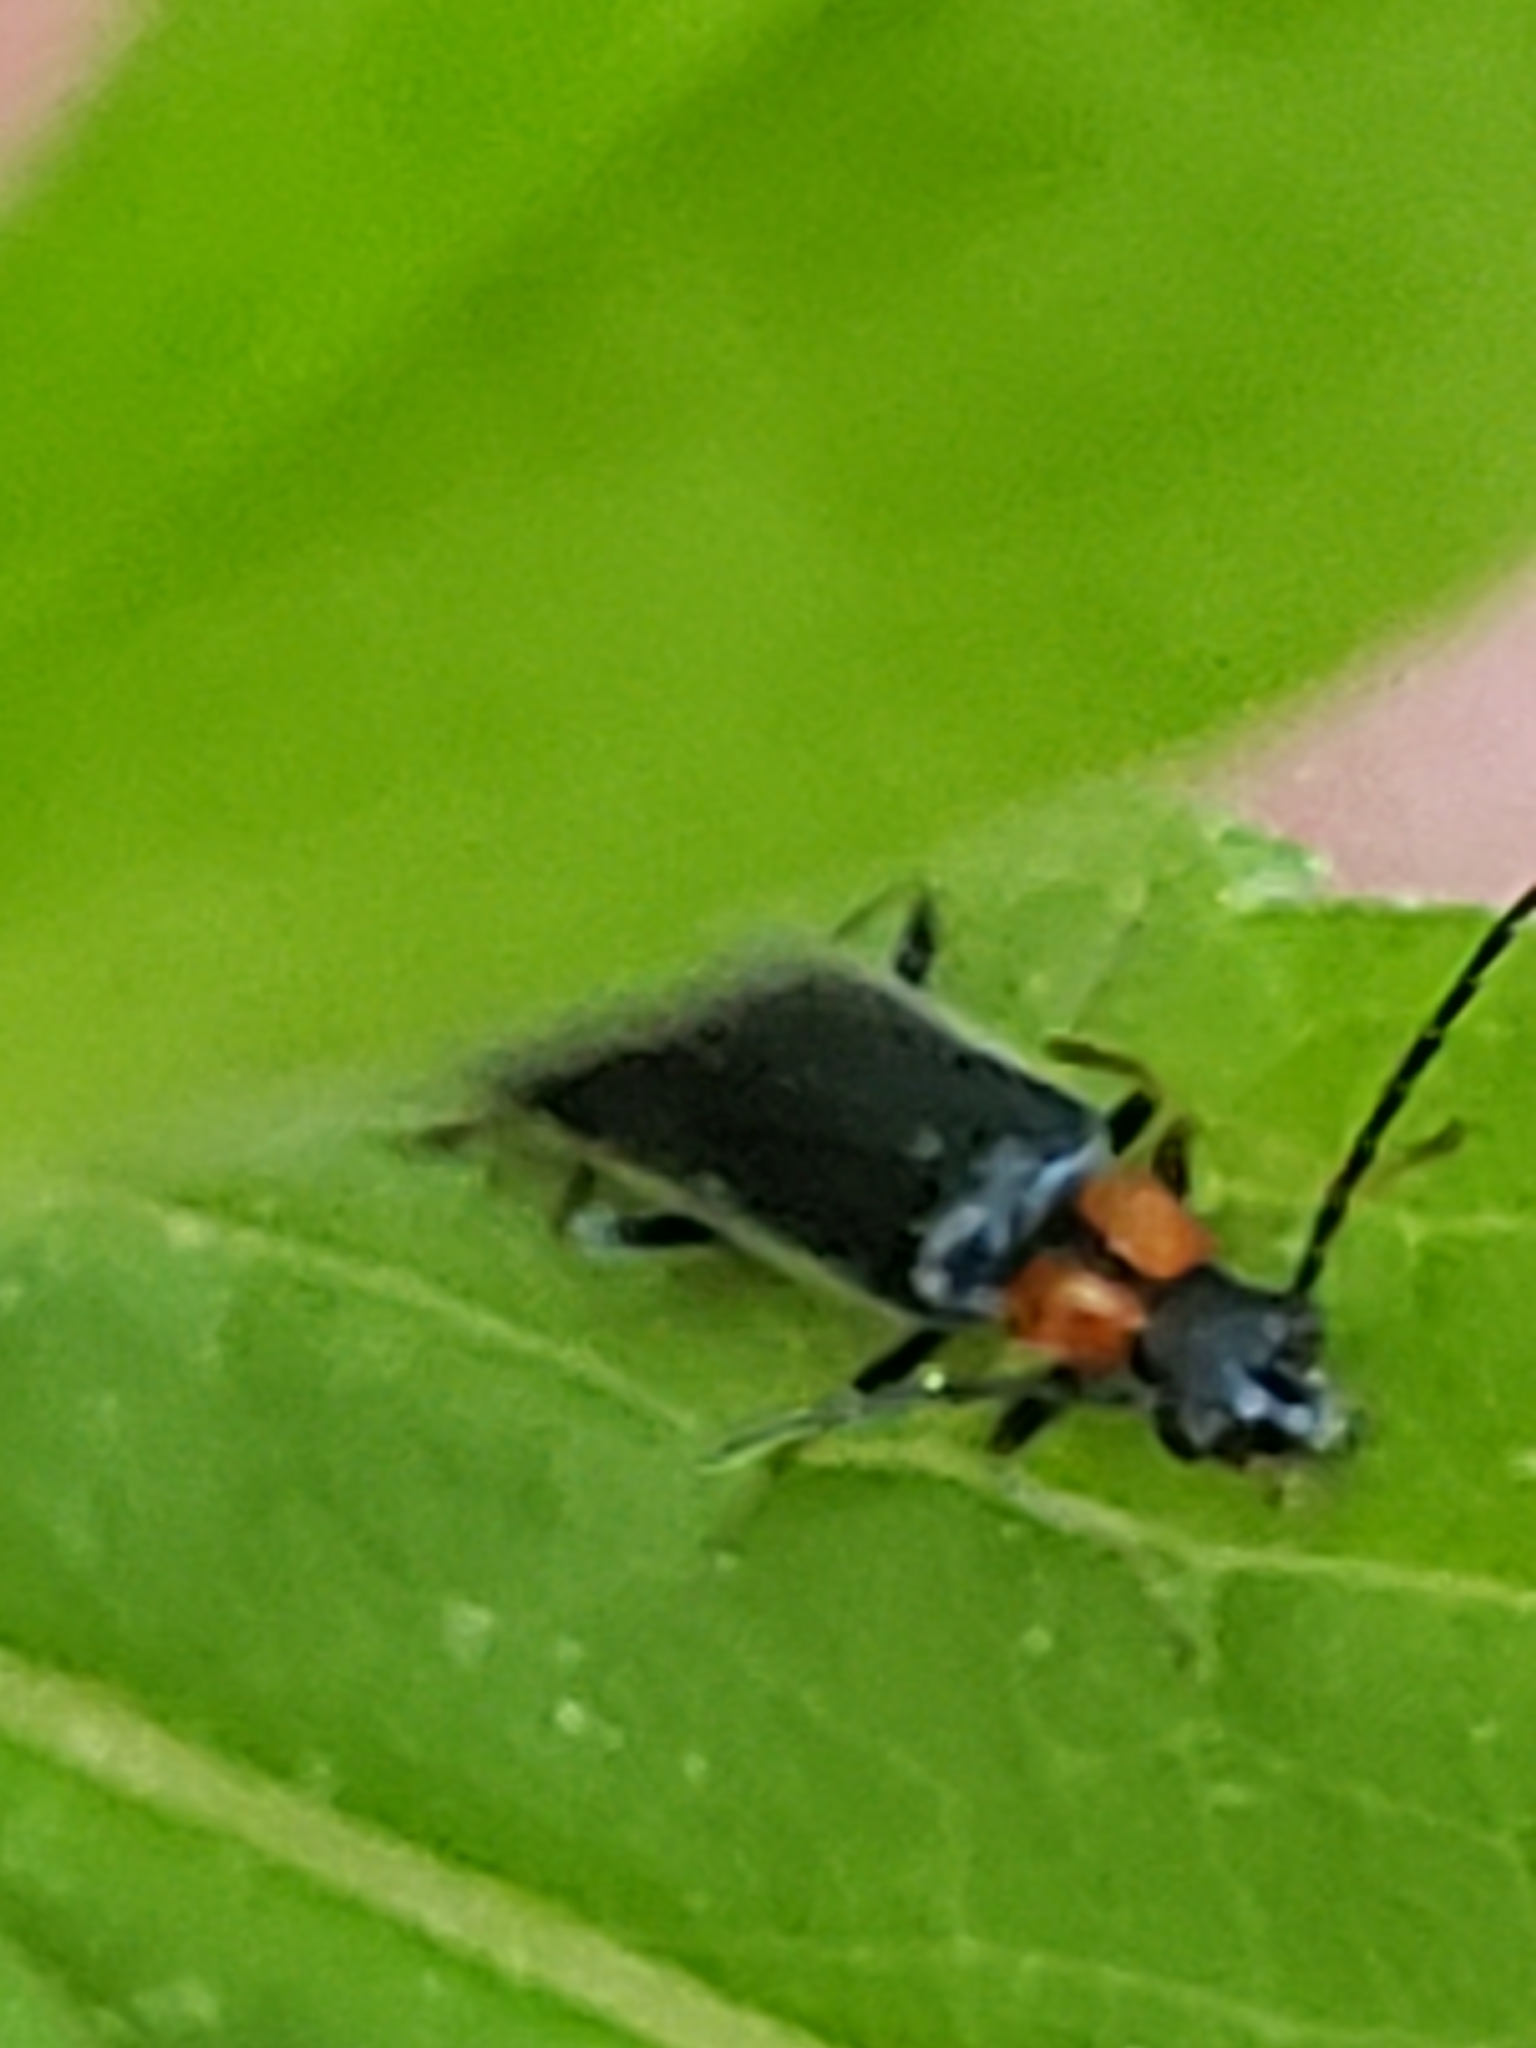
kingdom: Animalia
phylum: Arthropoda
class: Insecta
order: Coleoptera
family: Cantharidae
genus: Rhagonycha
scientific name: Rhagonycha excavata
